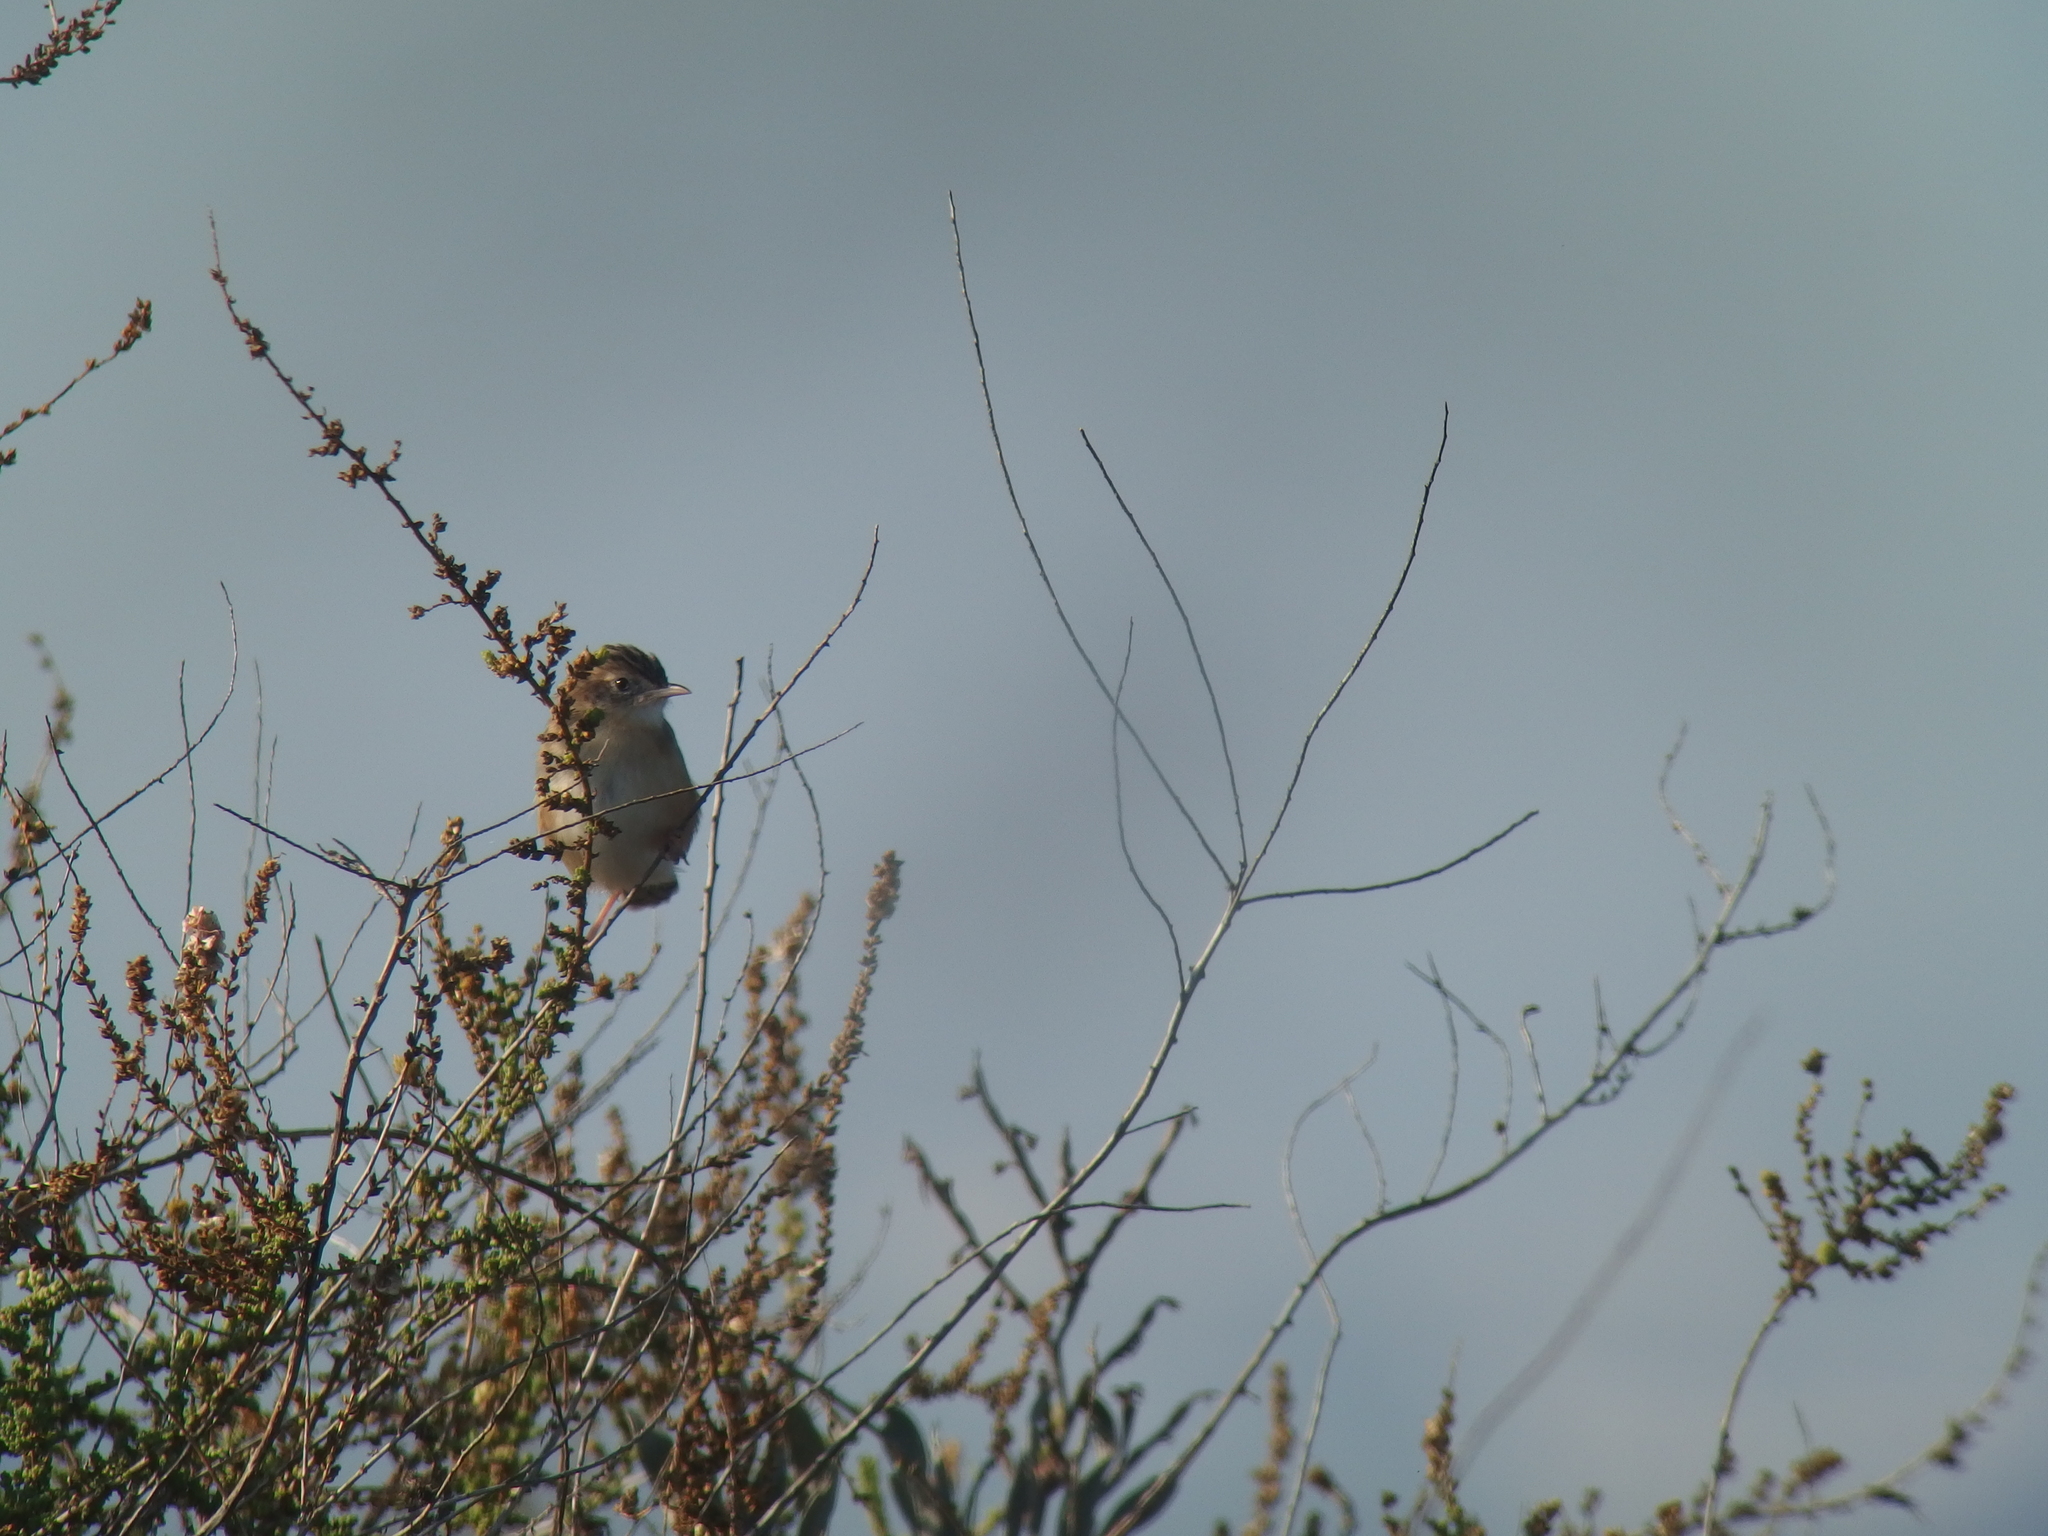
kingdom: Animalia
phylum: Chordata
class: Aves
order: Passeriformes
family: Cisticolidae
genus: Cisticola
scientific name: Cisticola juncidis
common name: Zitting cisticola
